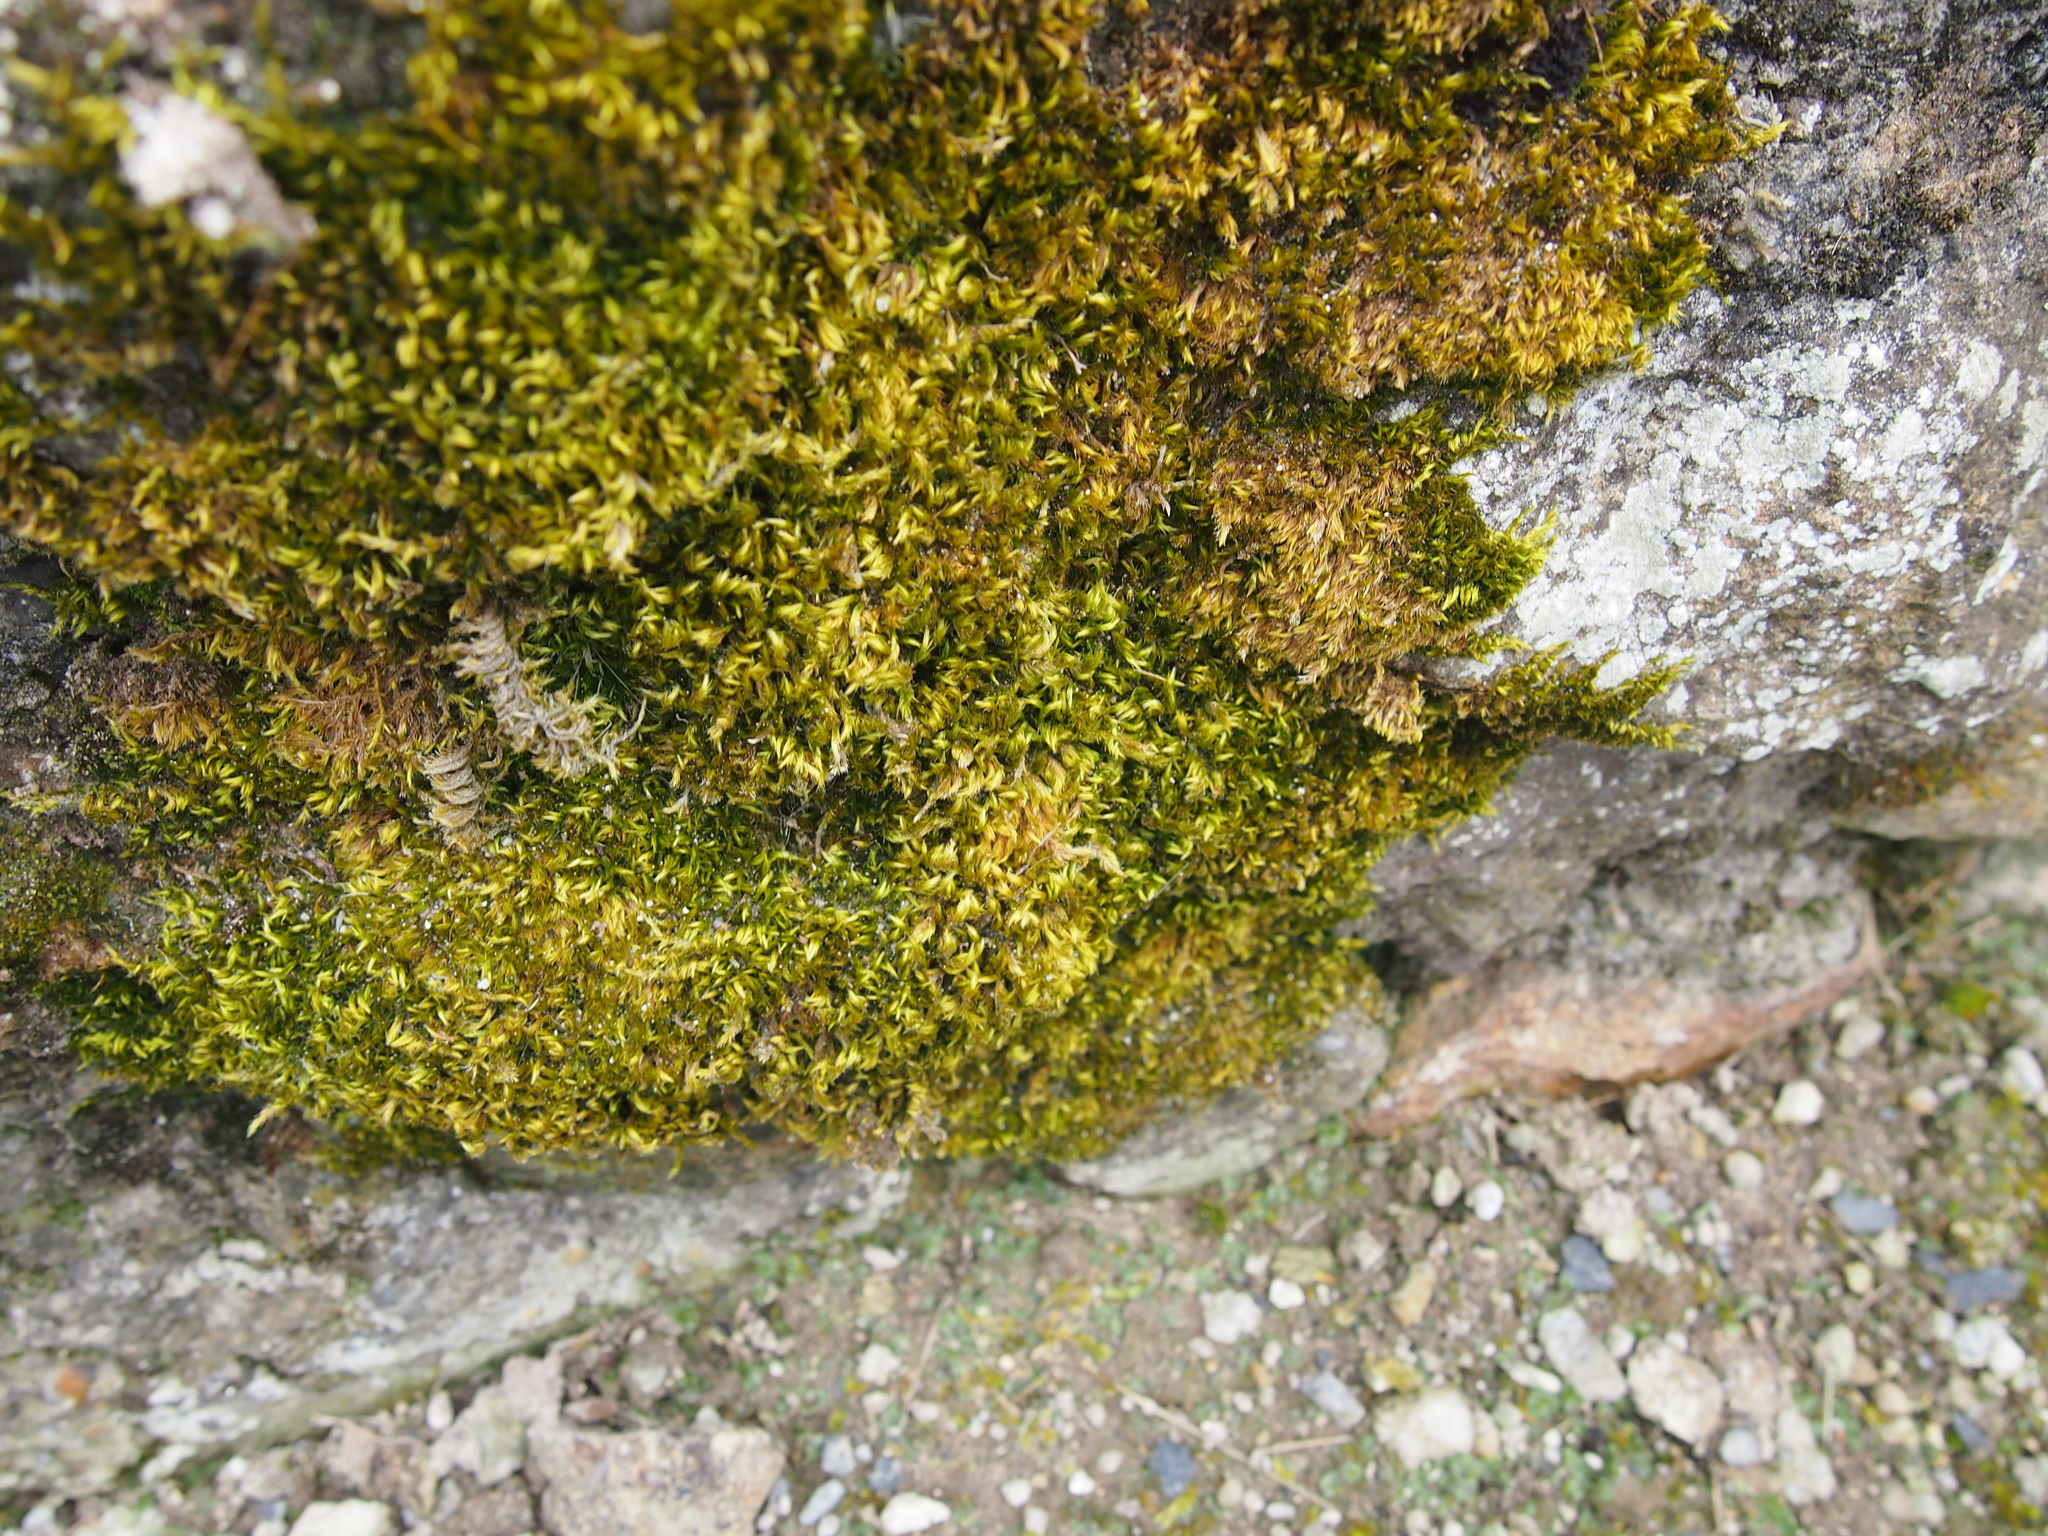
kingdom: Plantae
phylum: Bryophyta
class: Bryopsida
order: Hypnales
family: Brachytheciaceae
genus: Homalothecium
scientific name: Homalothecium sericeum
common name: Silky wall feather-moss
